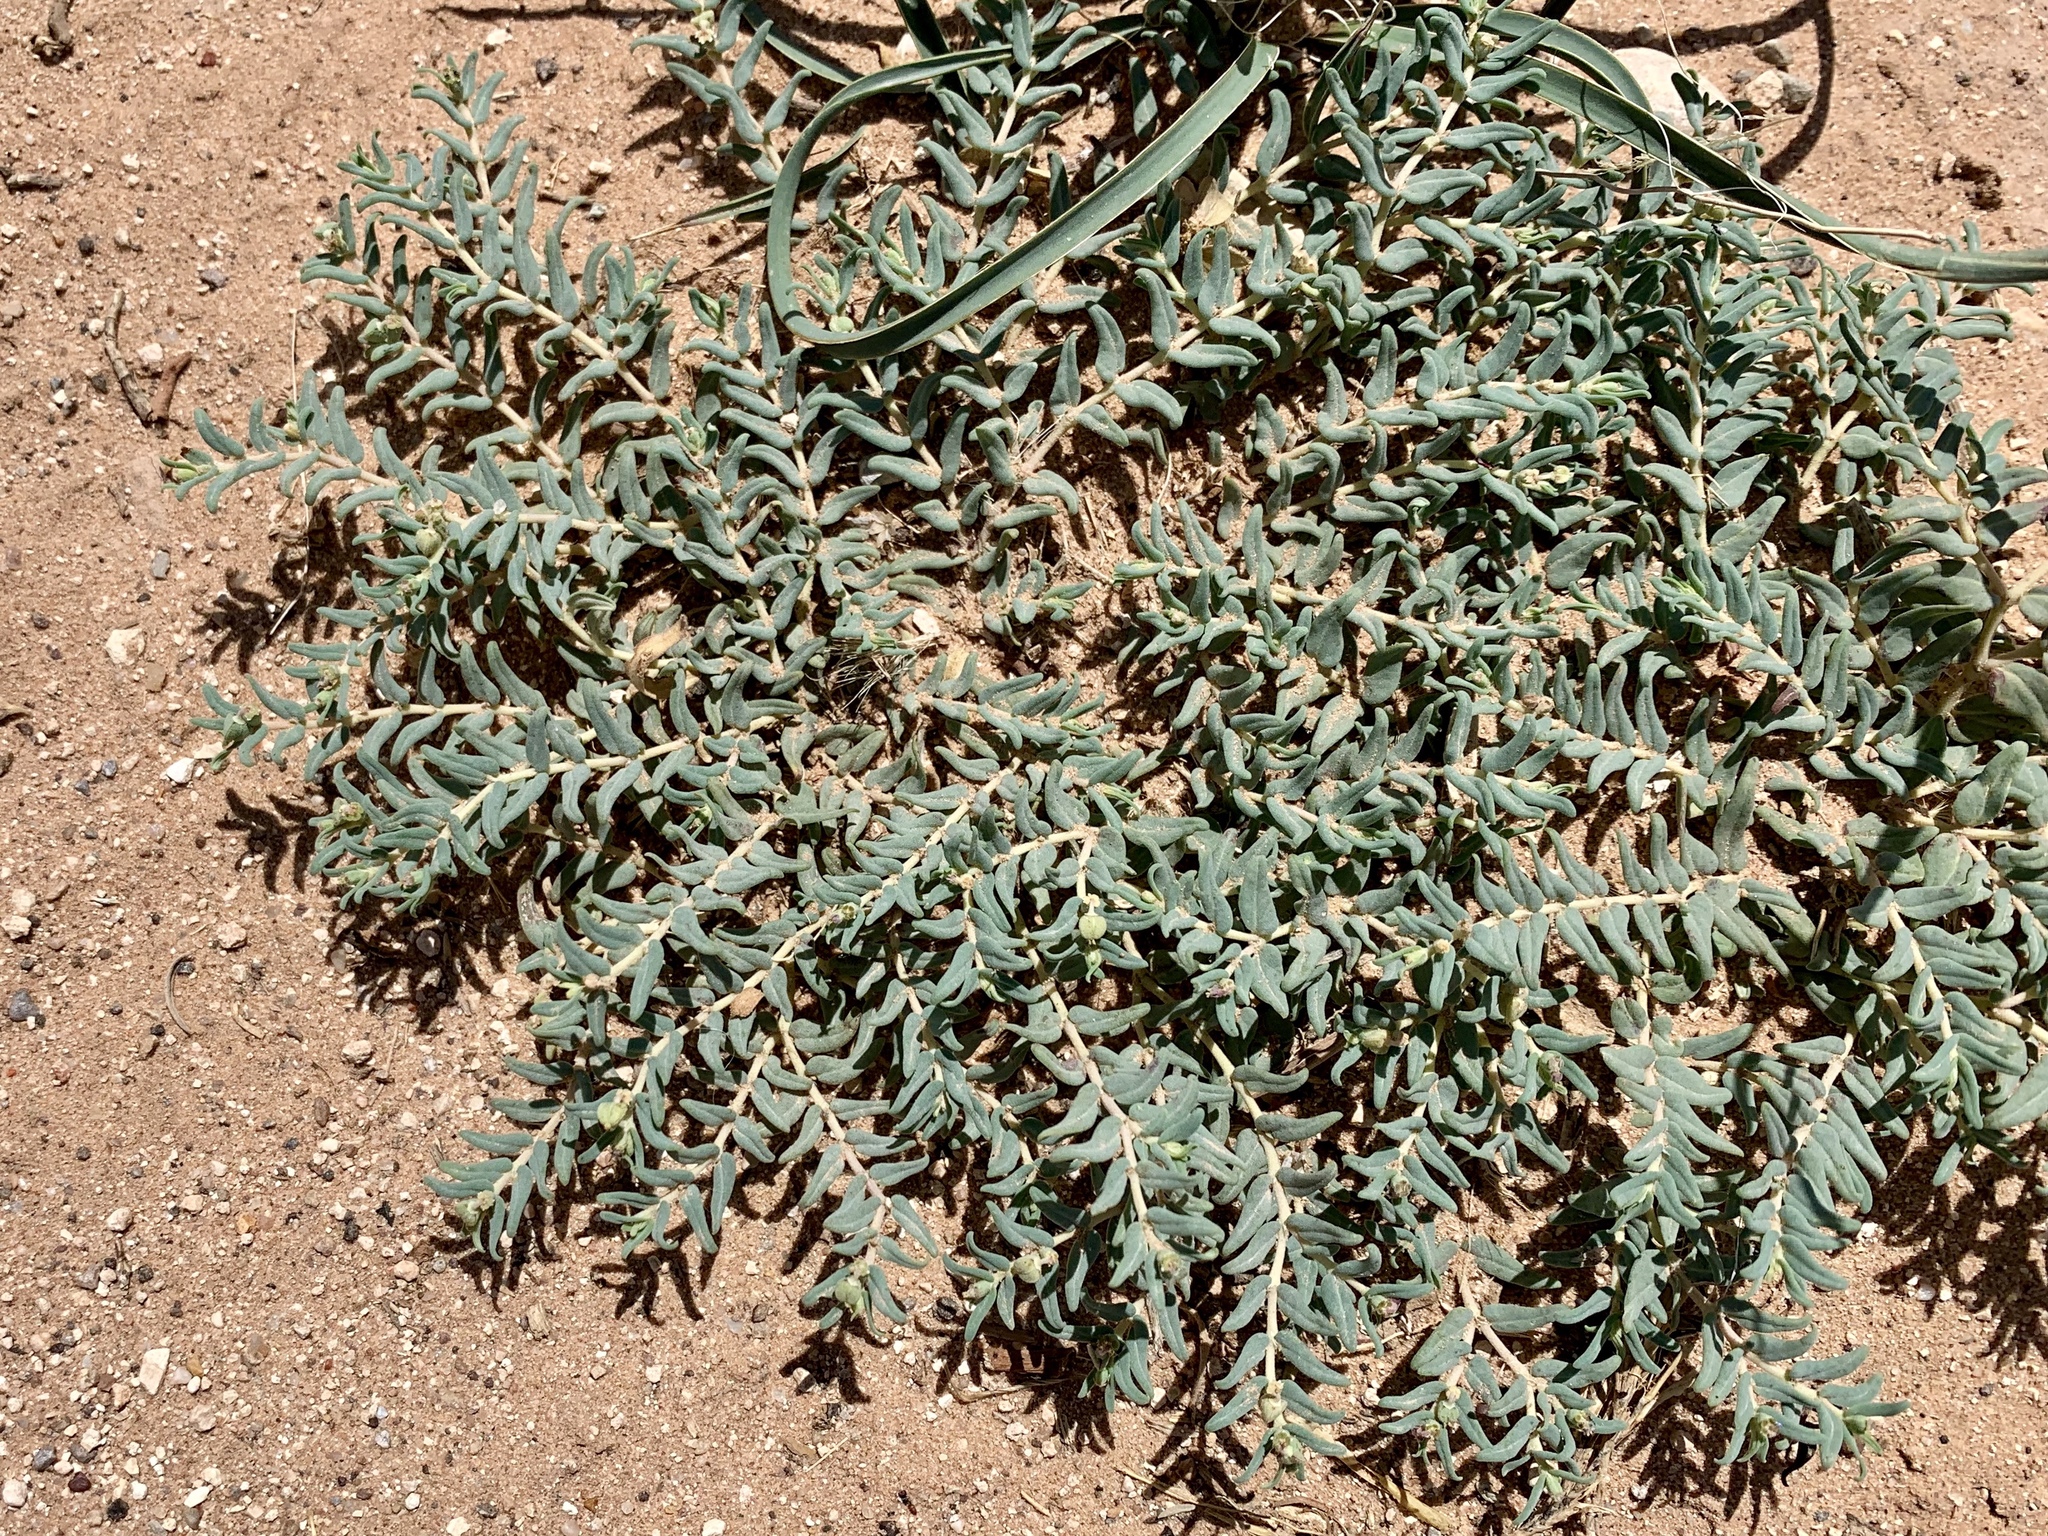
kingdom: Plantae
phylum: Tracheophyta
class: Magnoliopsida
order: Malpighiales
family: Euphorbiaceae
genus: Euphorbia
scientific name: Euphorbia lata
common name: Hoary euphorbia
